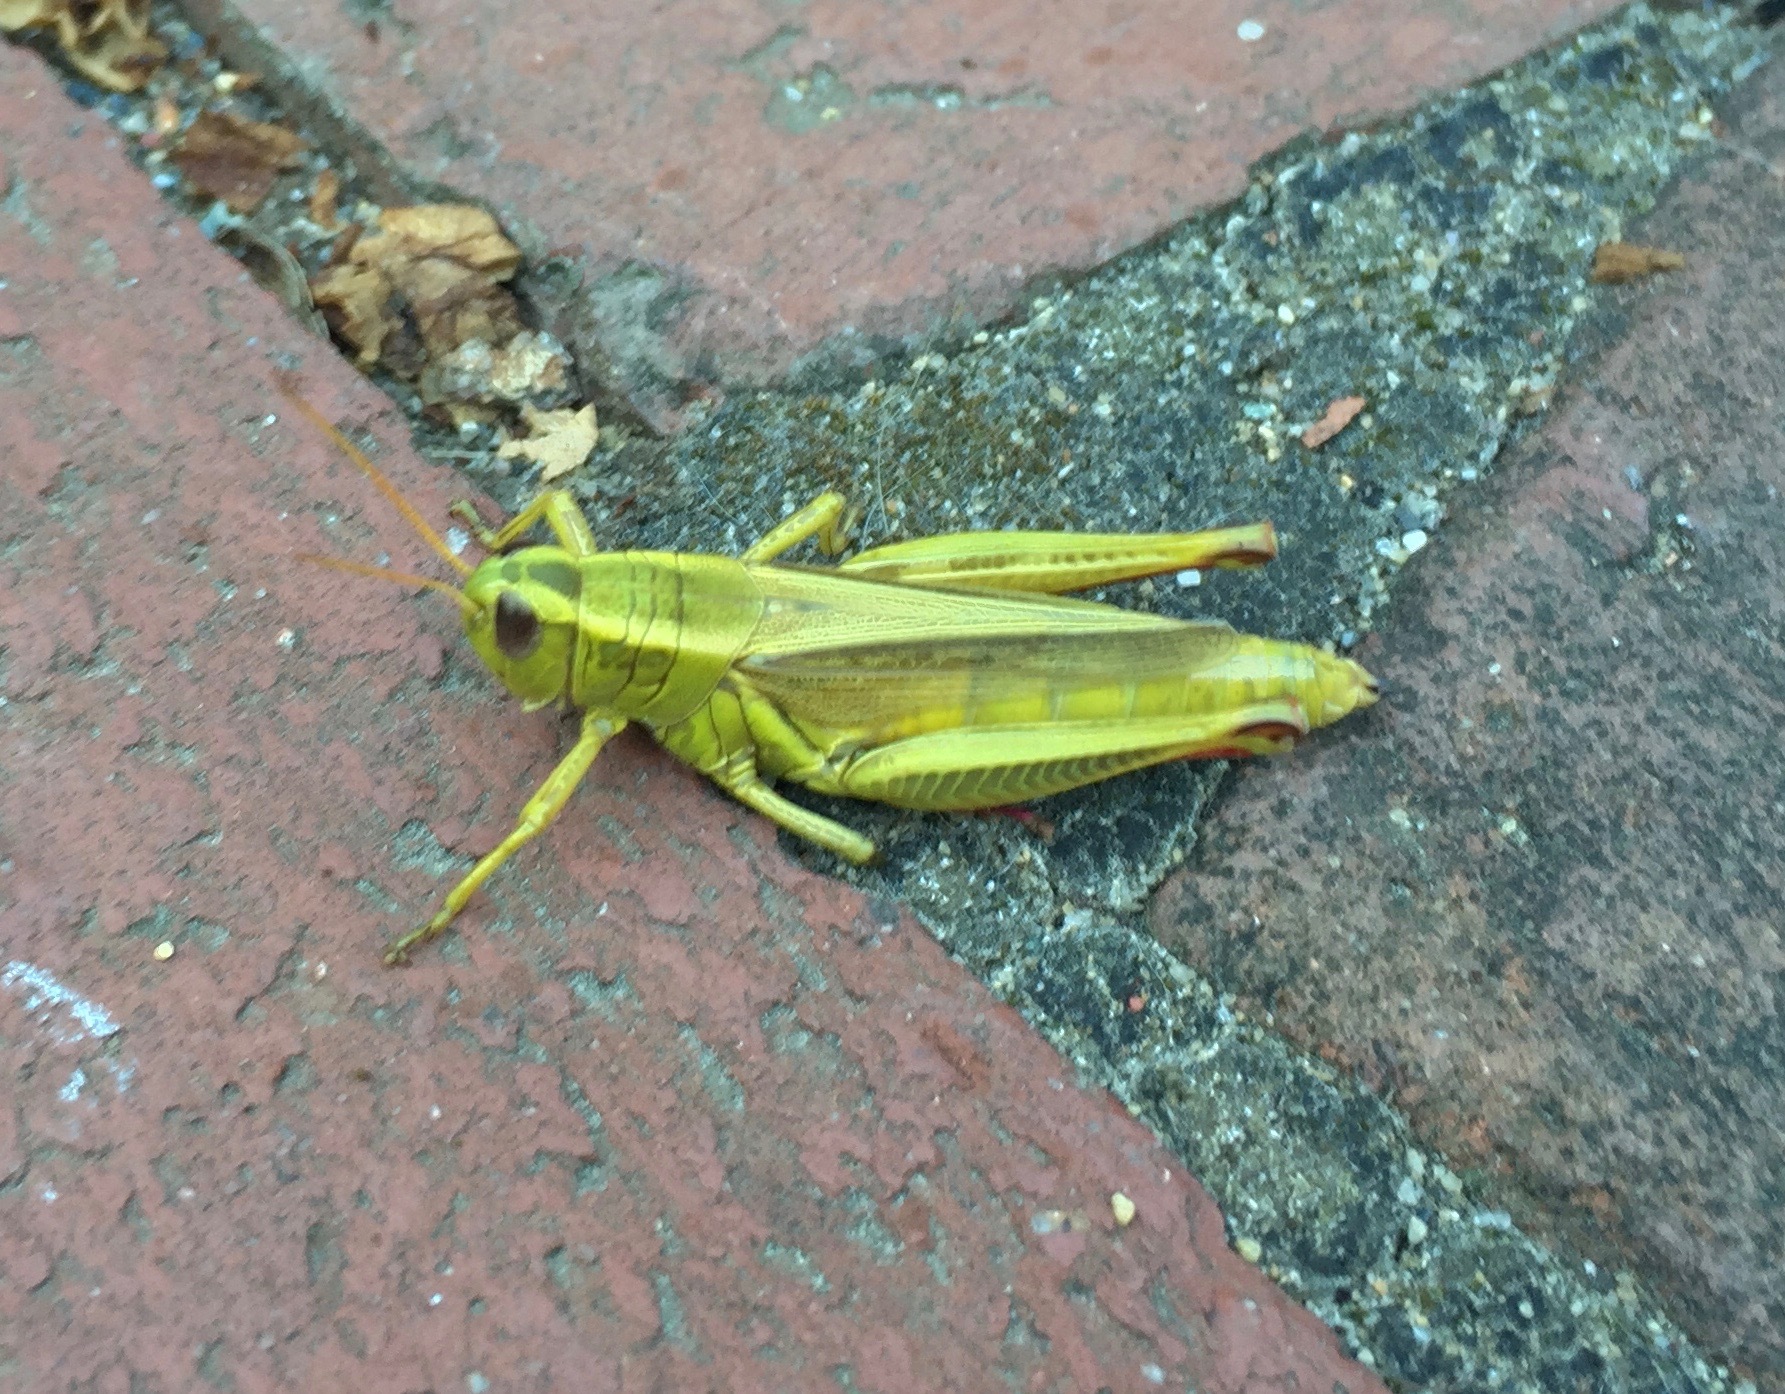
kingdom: Animalia
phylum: Arthropoda
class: Insecta
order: Orthoptera
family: Acrididae
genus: Melanoplus
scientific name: Melanoplus bivittatus
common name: Two-striped grasshopper
